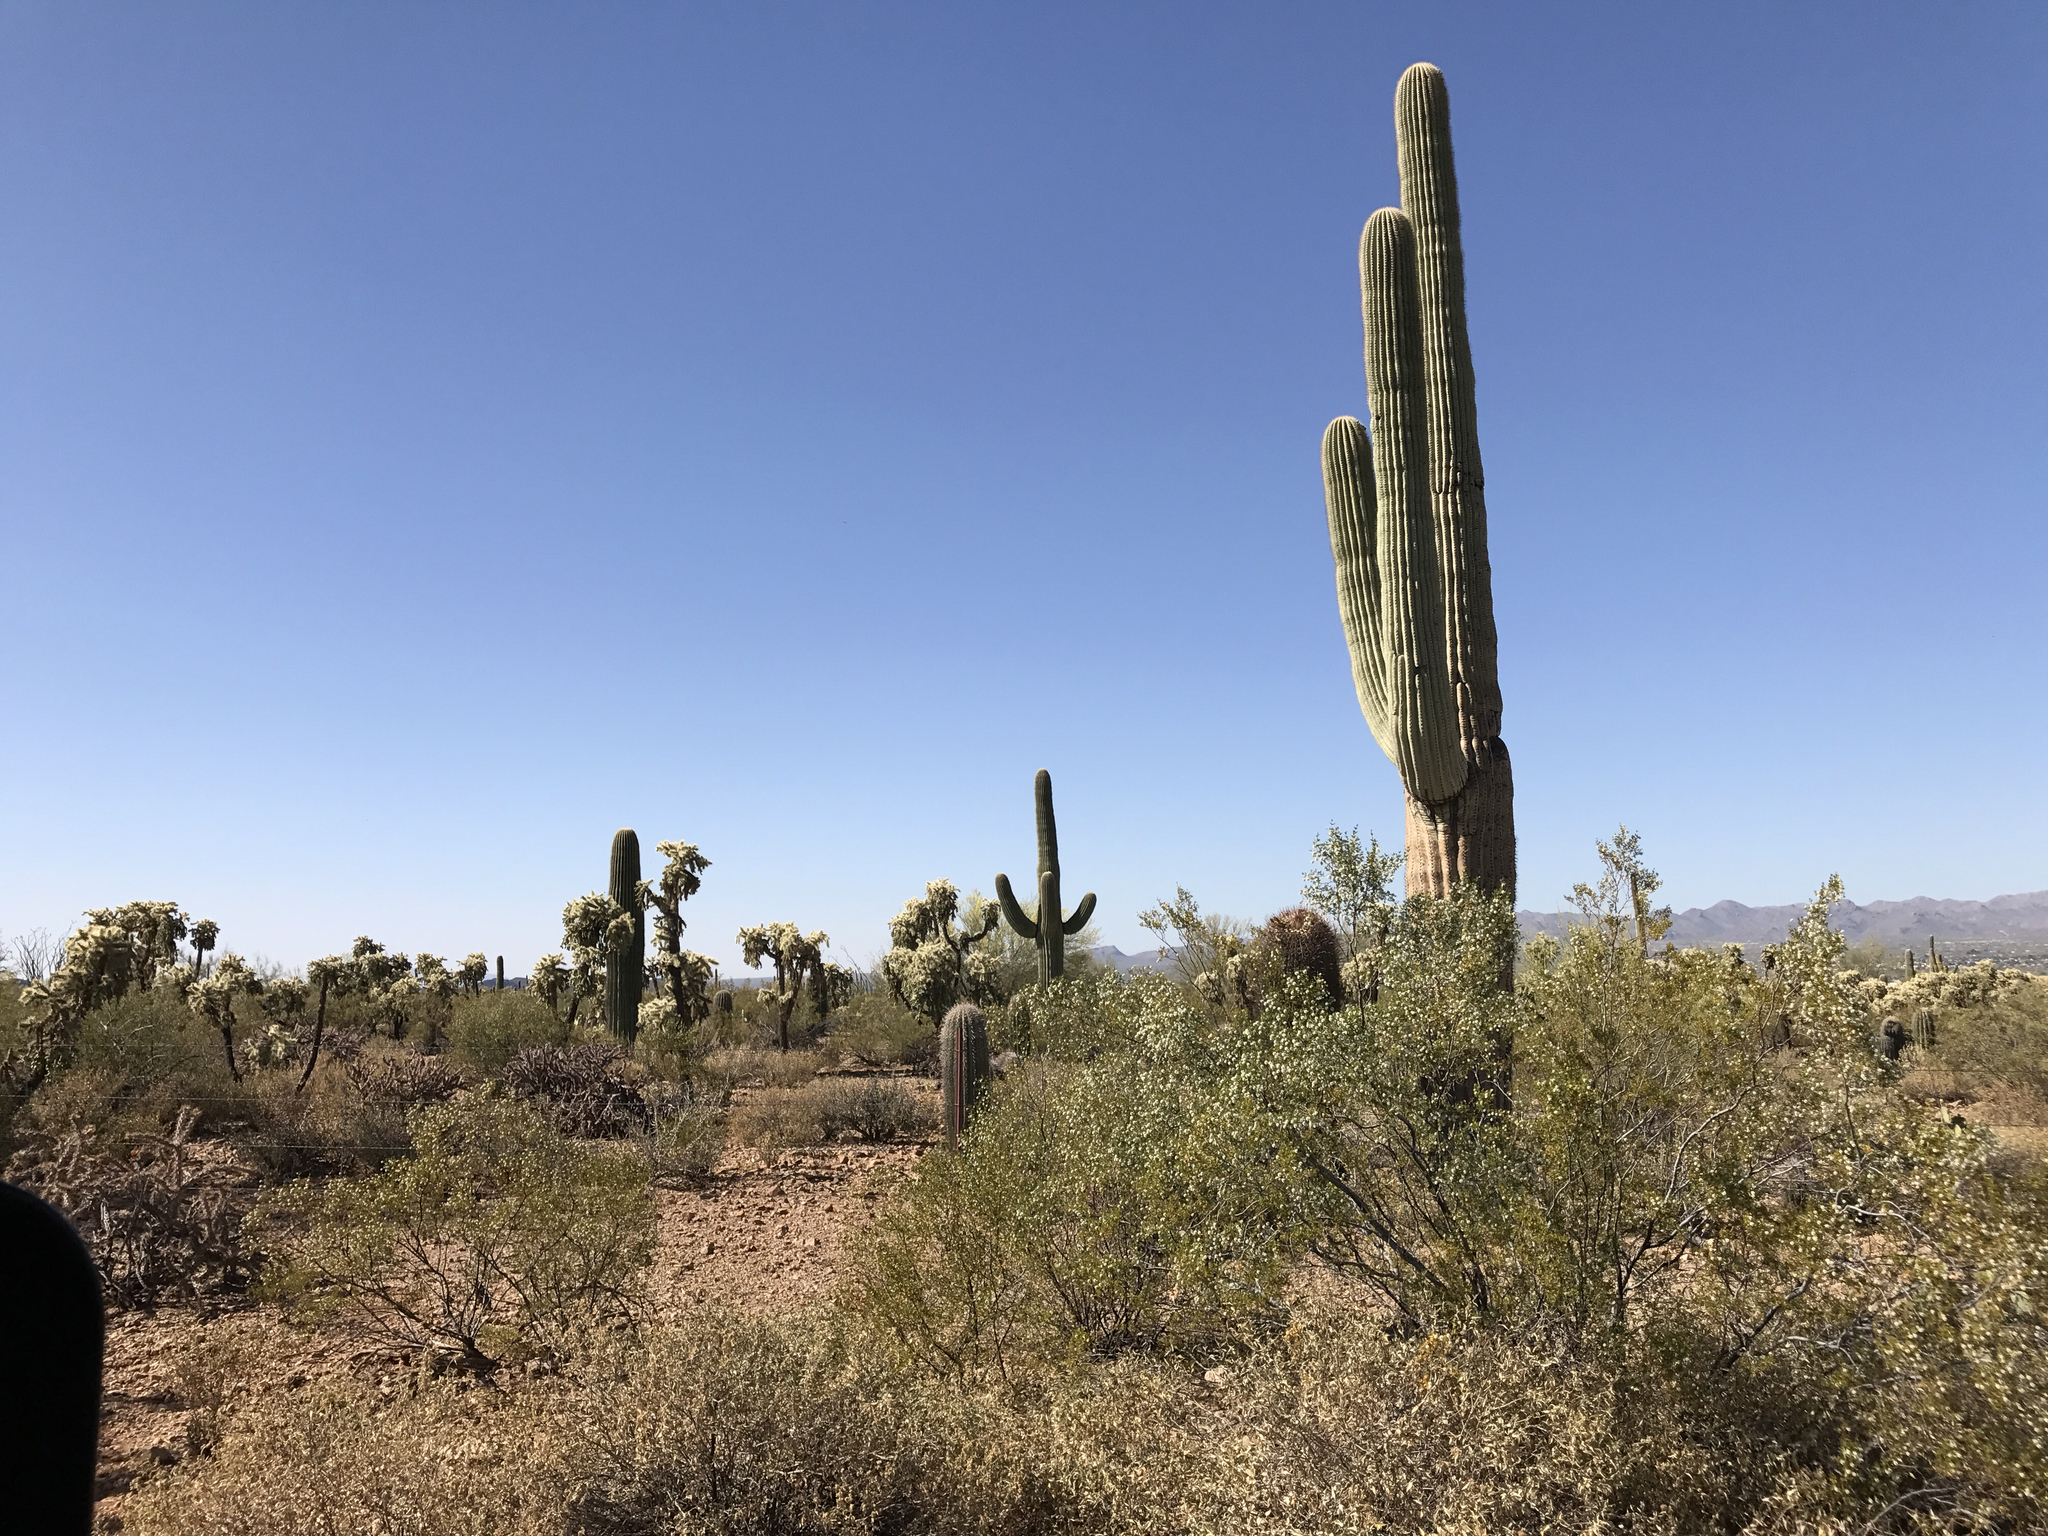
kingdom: Plantae
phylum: Tracheophyta
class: Magnoliopsida
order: Caryophyllales
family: Cactaceae
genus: Carnegiea
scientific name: Carnegiea gigantea
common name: Saguaro
